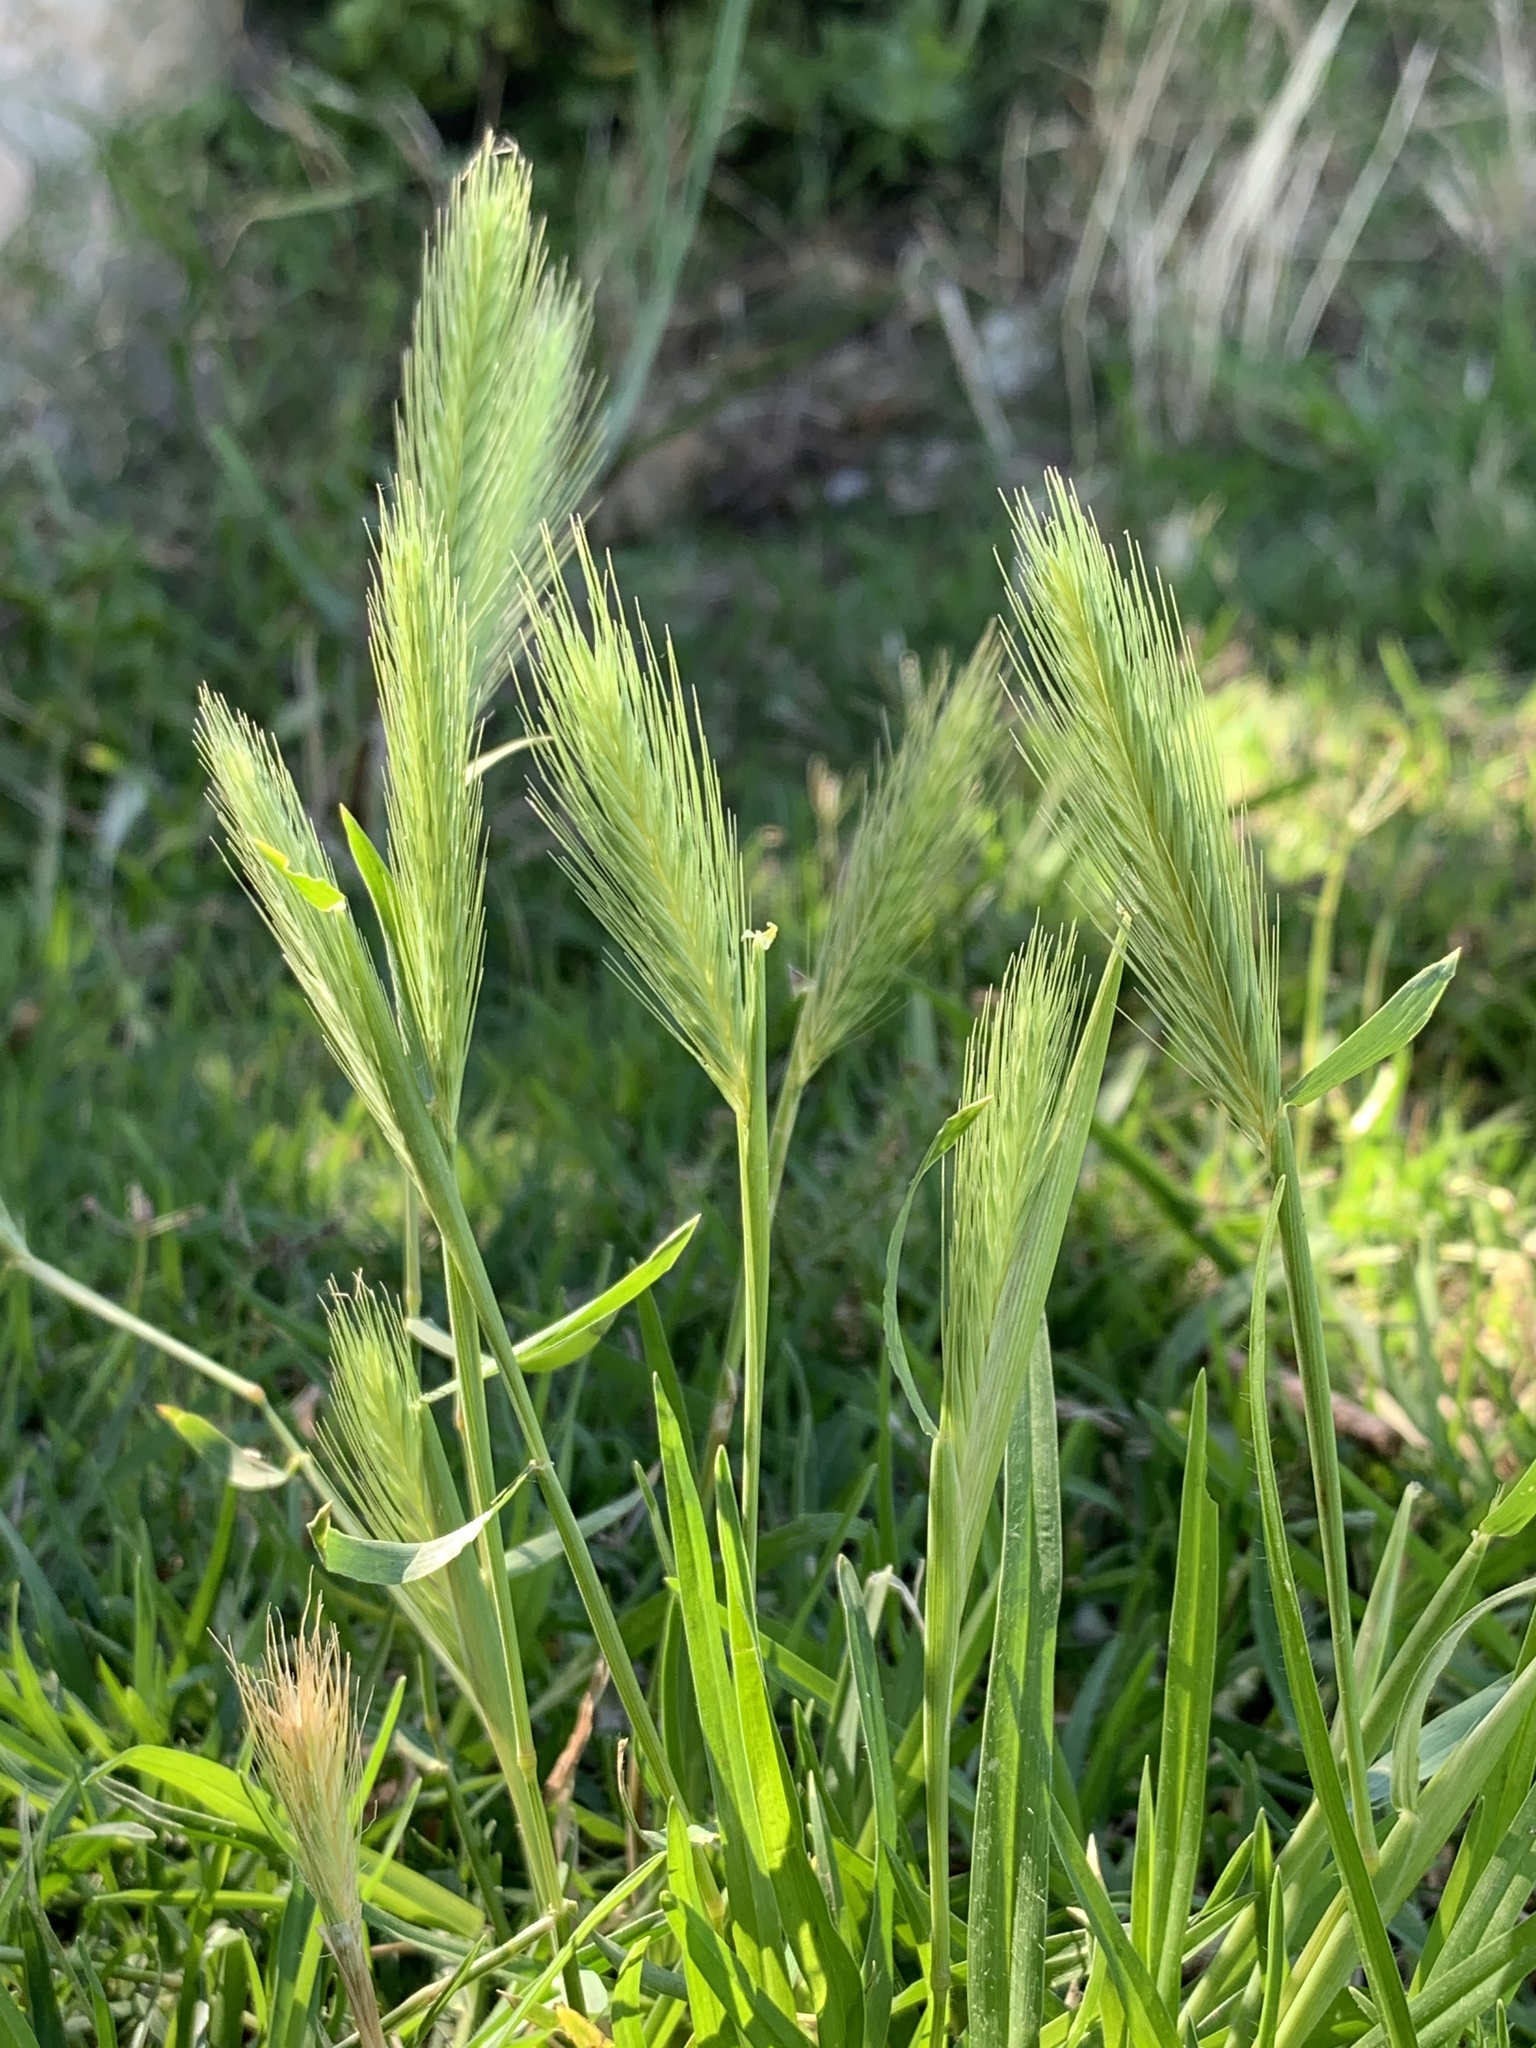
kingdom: Plantae
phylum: Tracheophyta
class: Liliopsida
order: Poales
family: Poaceae
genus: Hordeum
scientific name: Hordeum murinum
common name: Wall barley
